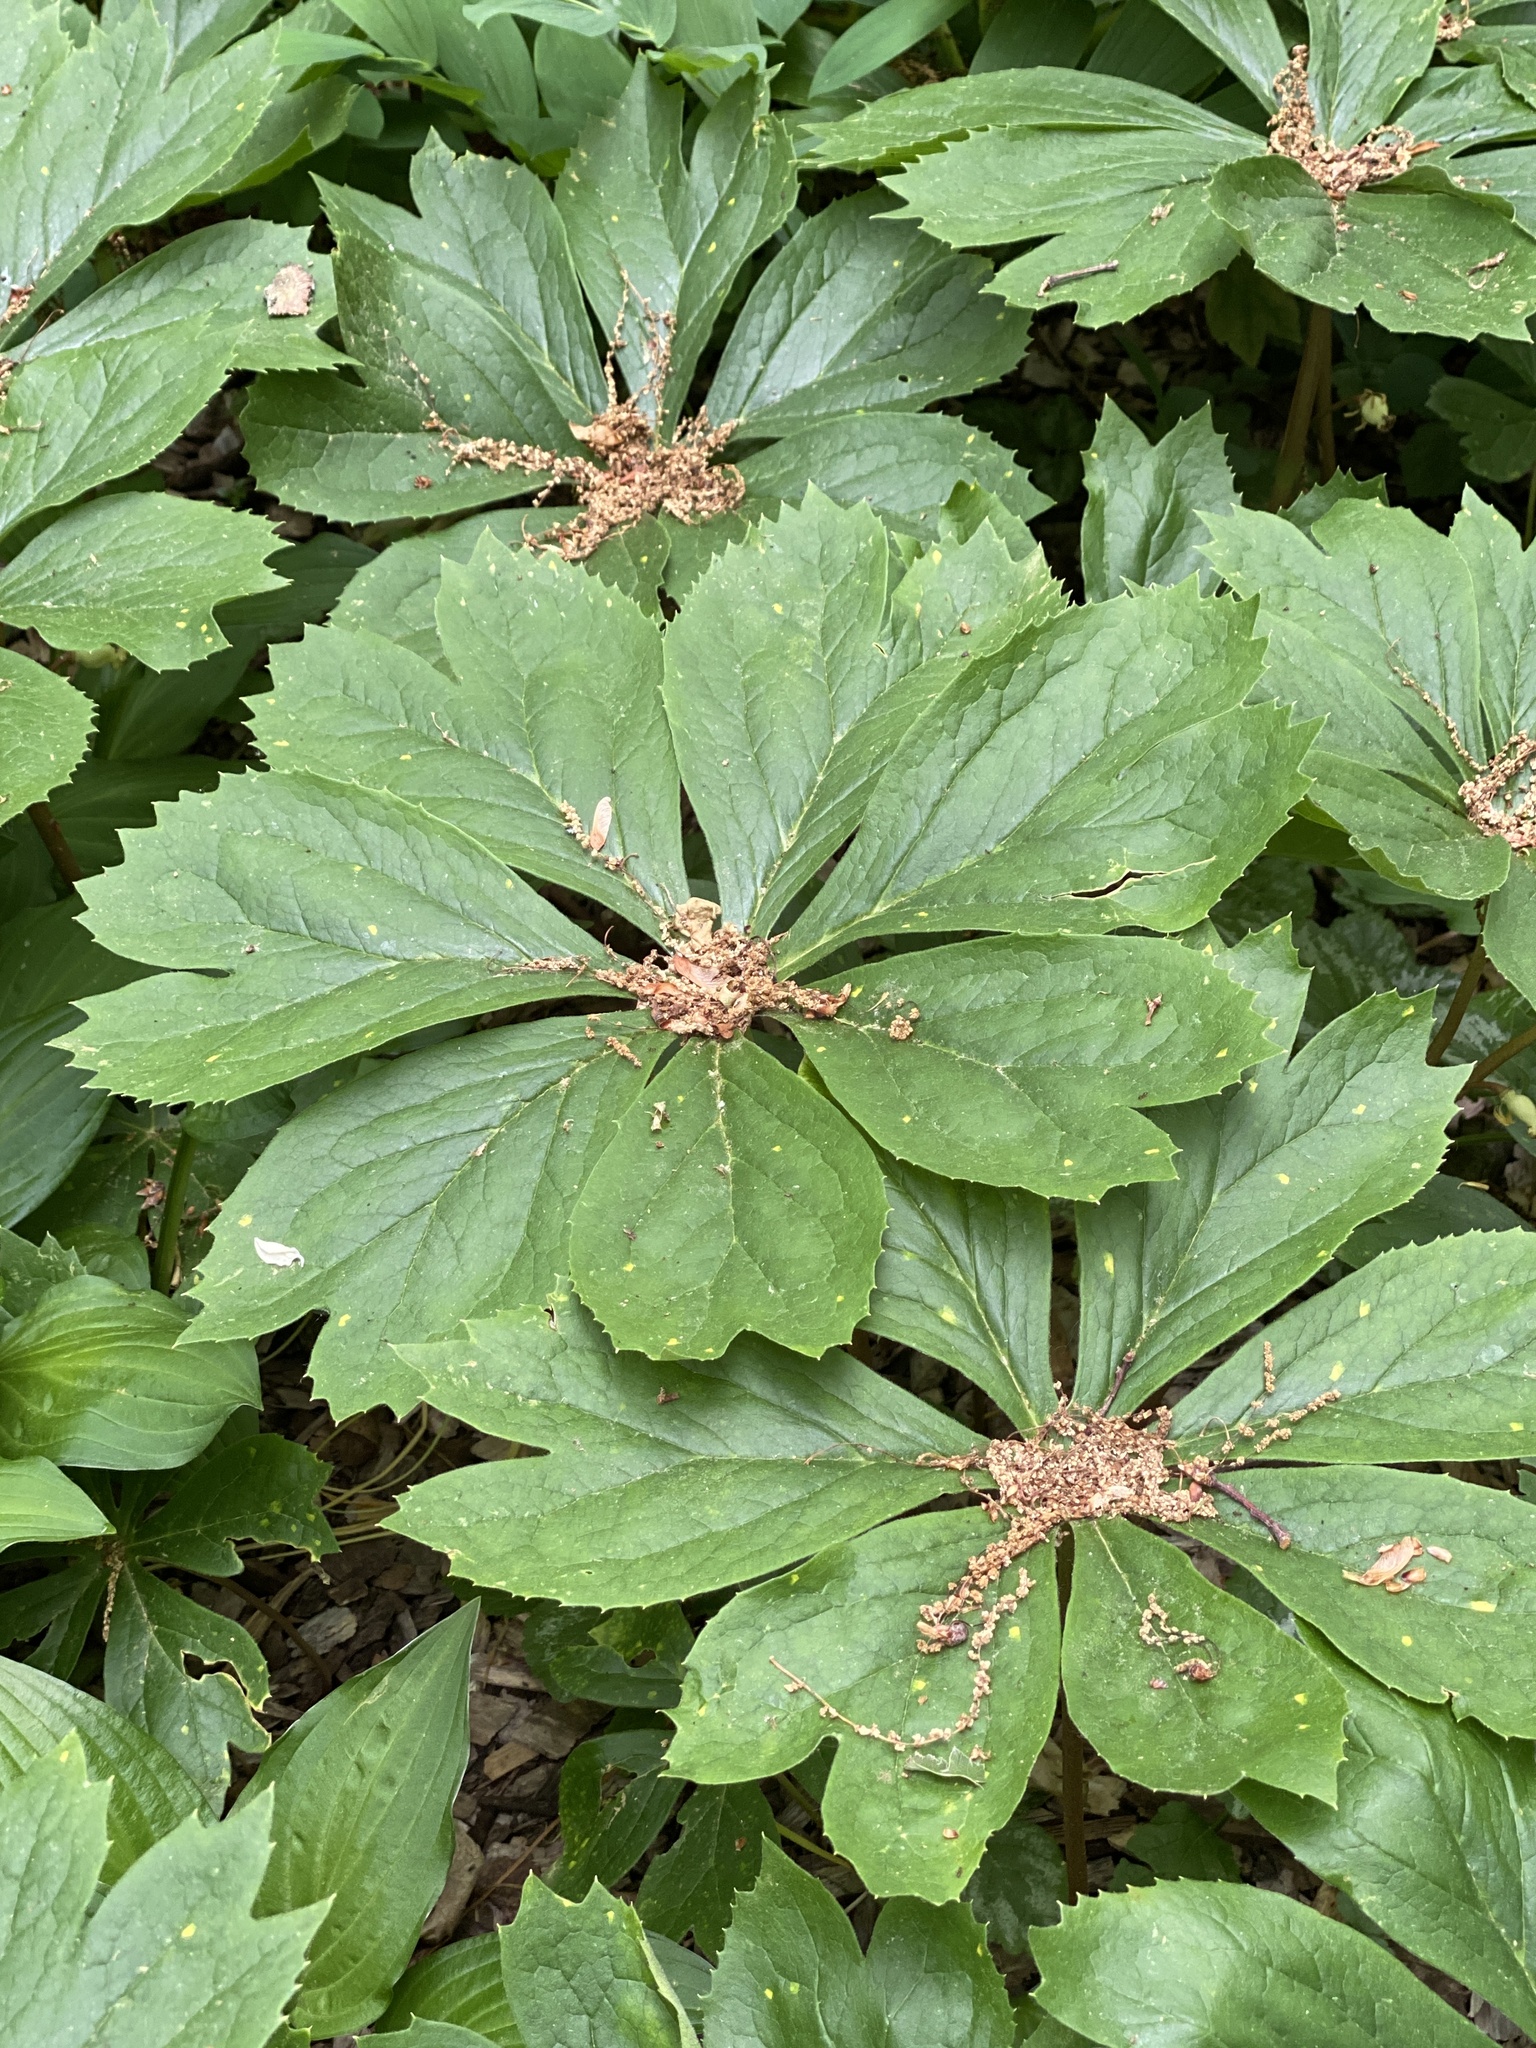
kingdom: Plantae
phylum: Tracheophyta
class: Magnoliopsida
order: Ranunculales
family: Berberidaceae
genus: Podophyllum
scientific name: Podophyllum peltatum
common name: Wild mandrake
